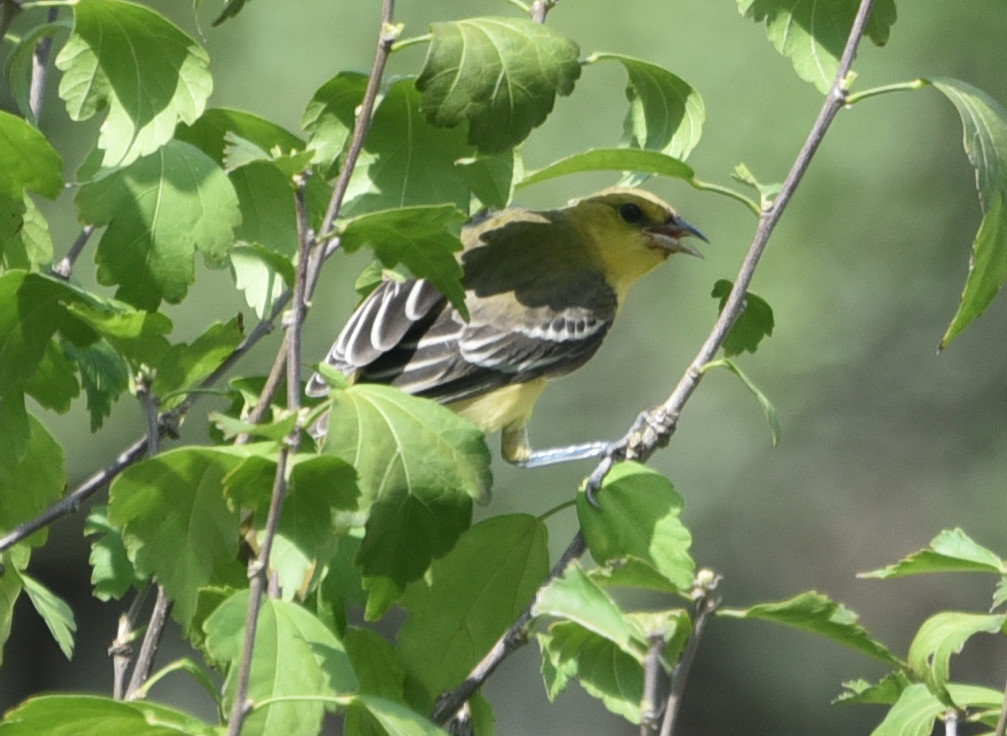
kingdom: Animalia
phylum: Chordata
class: Aves
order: Passeriformes
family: Icteridae
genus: Icterus
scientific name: Icterus spurius
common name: Orchard oriole
